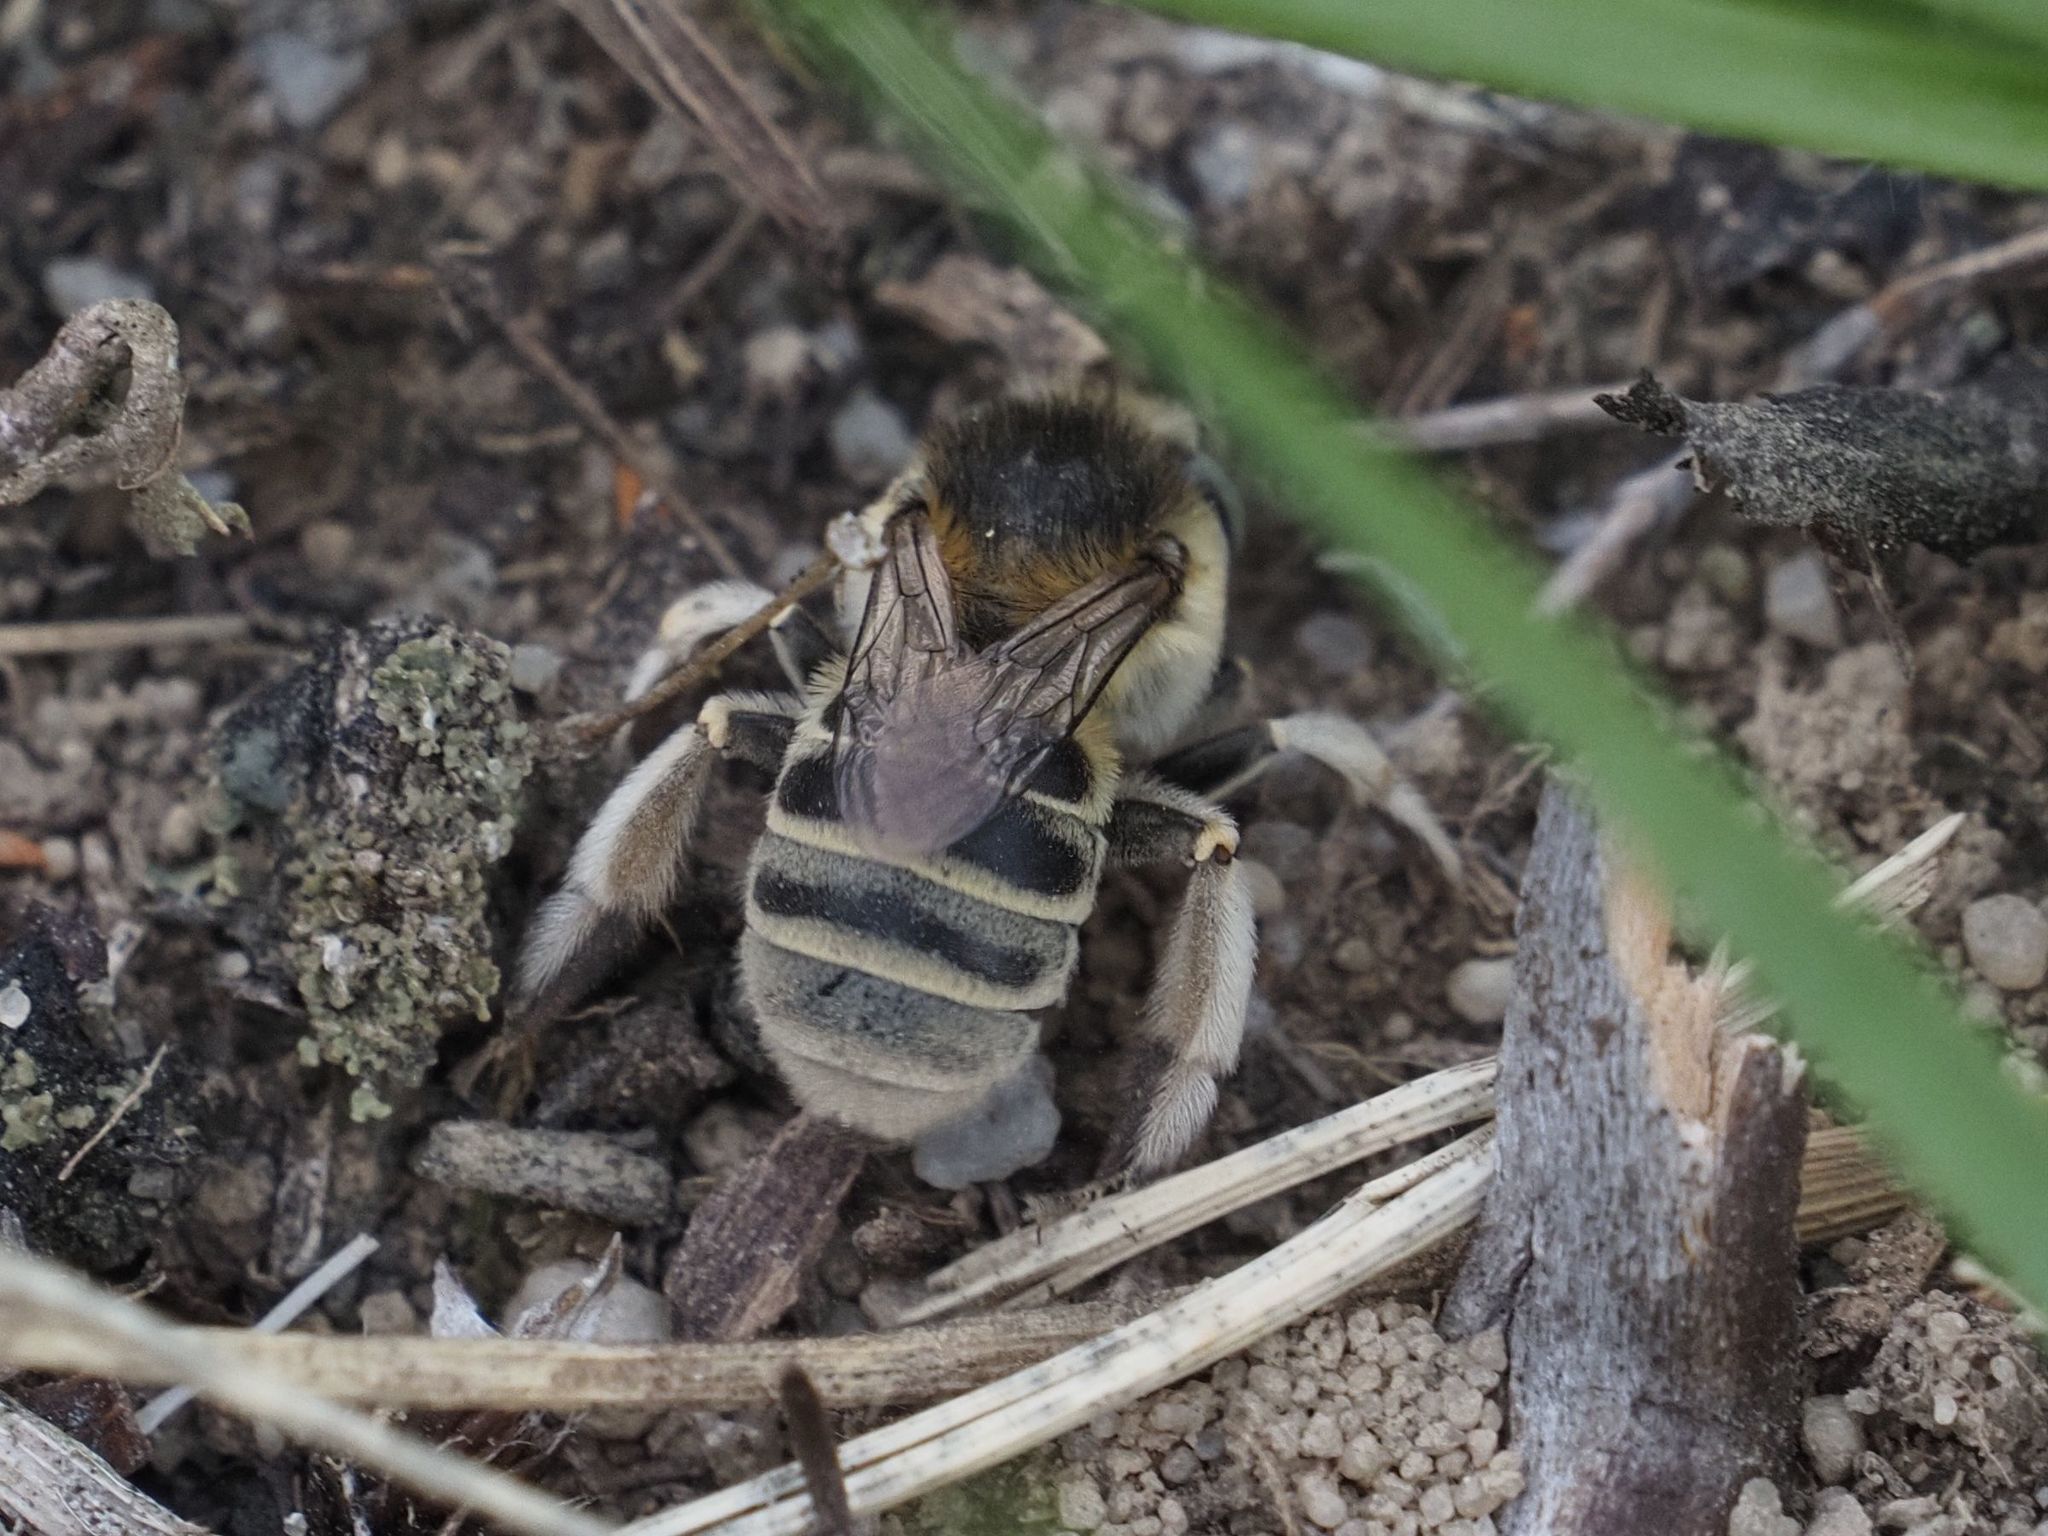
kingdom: Animalia
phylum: Arthropoda
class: Insecta
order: Hymenoptera
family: Apidae
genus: Anthophora
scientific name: Anthophora bimaculata
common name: Green-eyed flower bee
